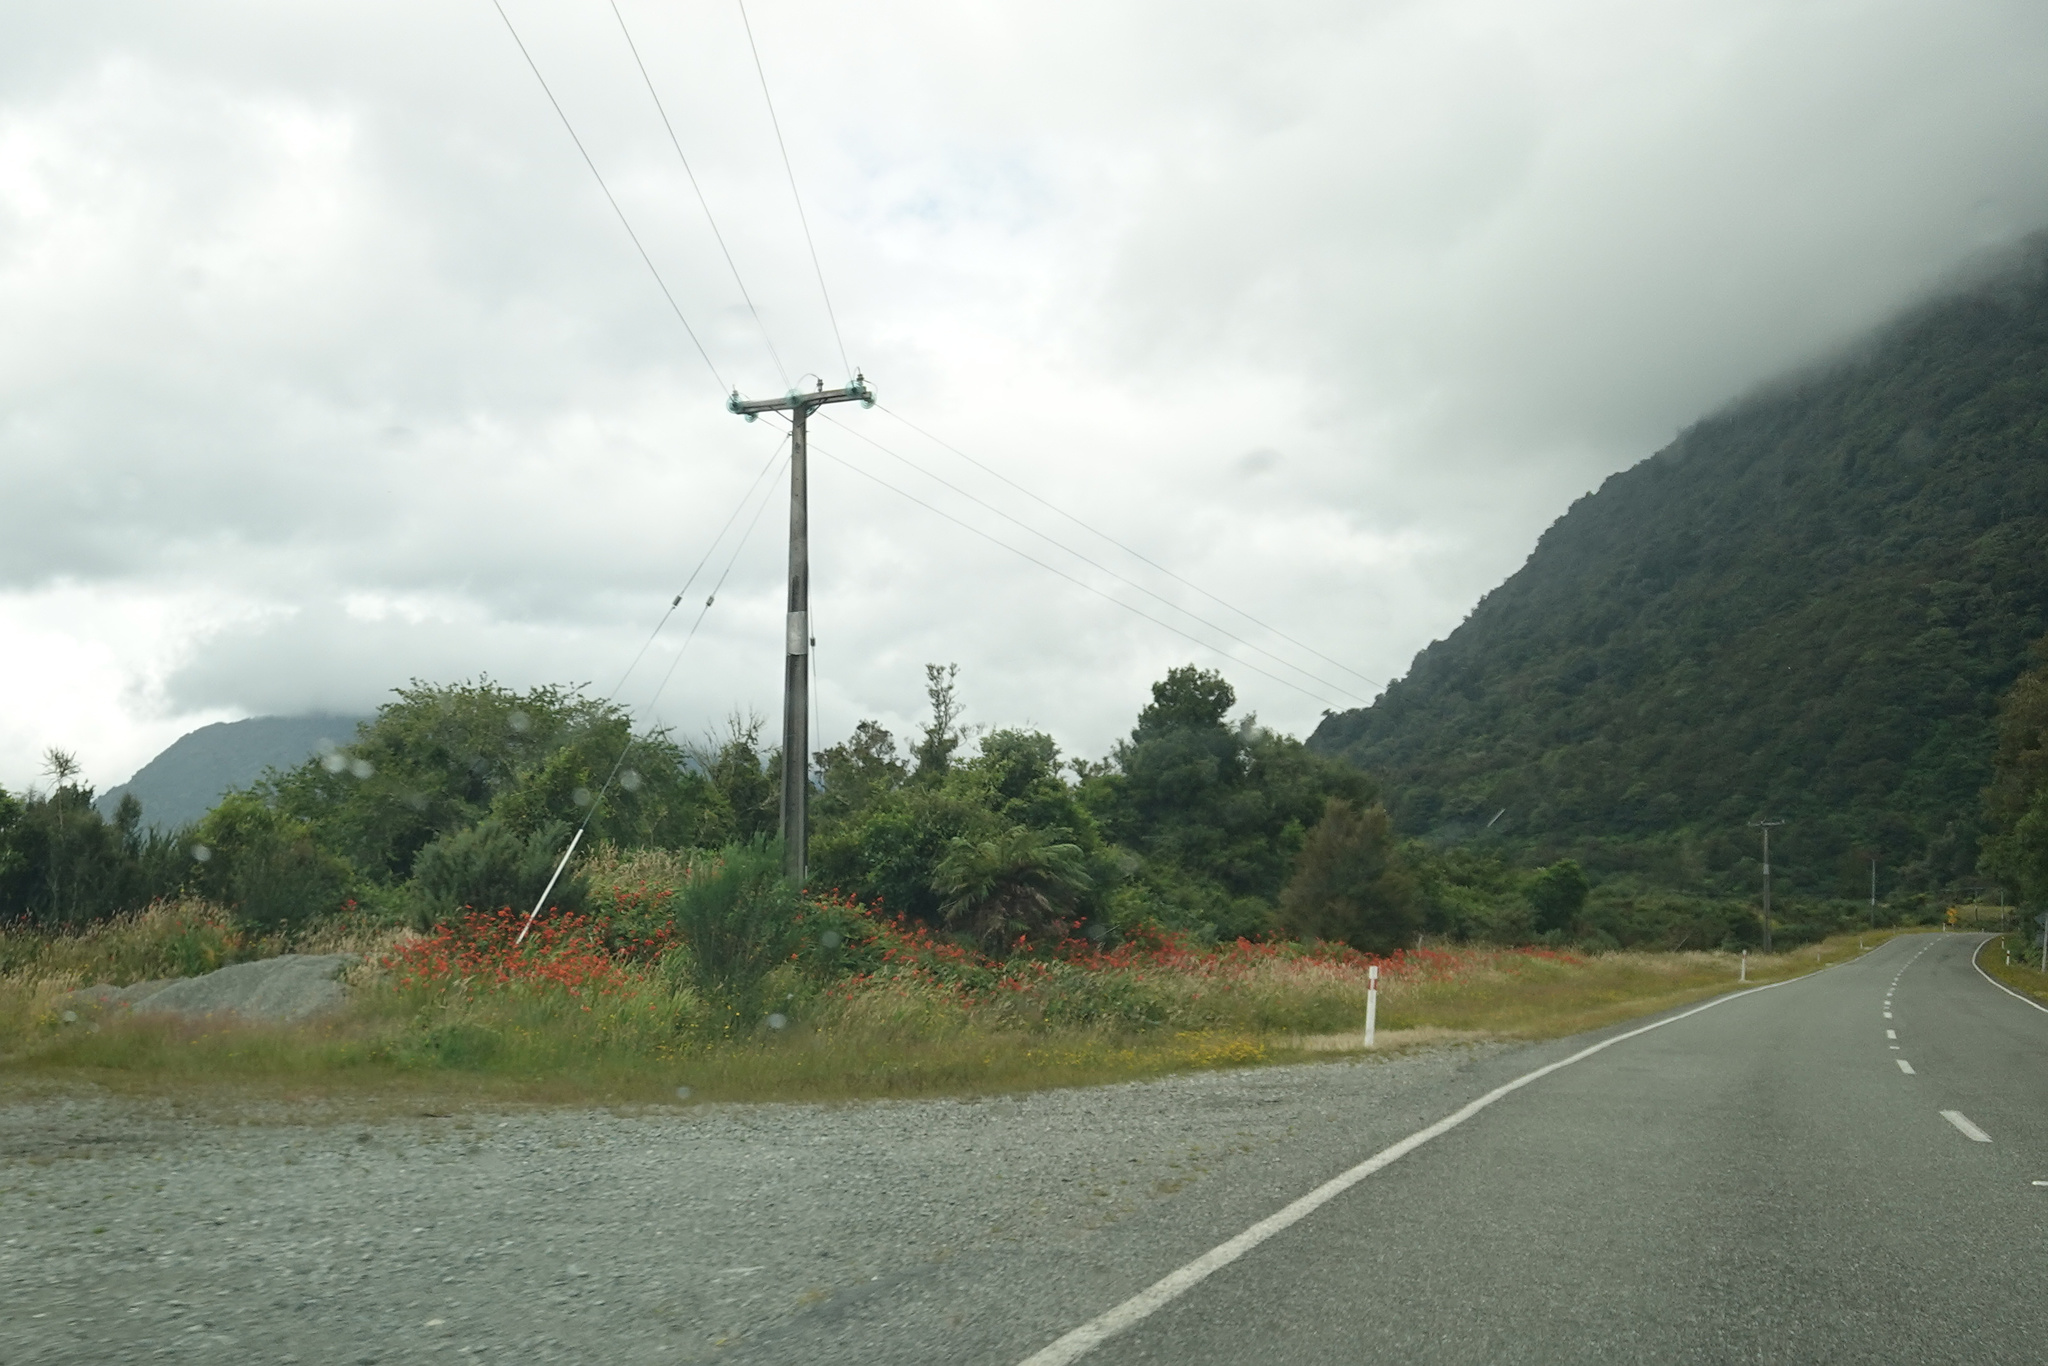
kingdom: Plantae
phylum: Tracheophyta
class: Liliopsida
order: Asparagales
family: Iridaceae
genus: Crocosmia
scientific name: Crocosmia crocosmiiflora
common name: Montbretia
